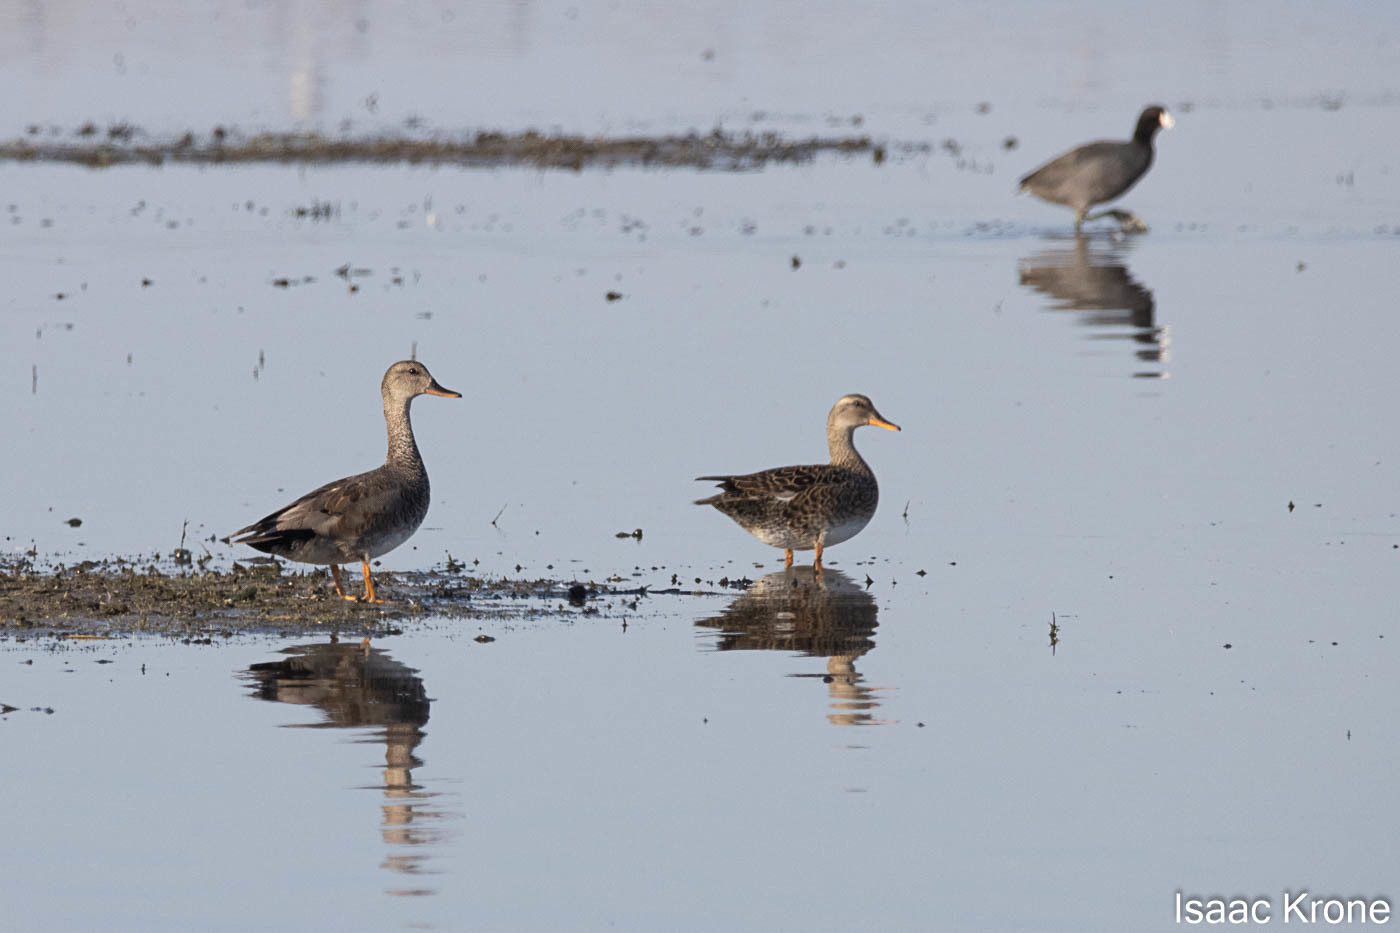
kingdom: Animalia
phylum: Chordata
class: Aves
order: Anseriformes
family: Anatidae
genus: Mareca
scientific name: Mareca strepera
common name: Gadwall
